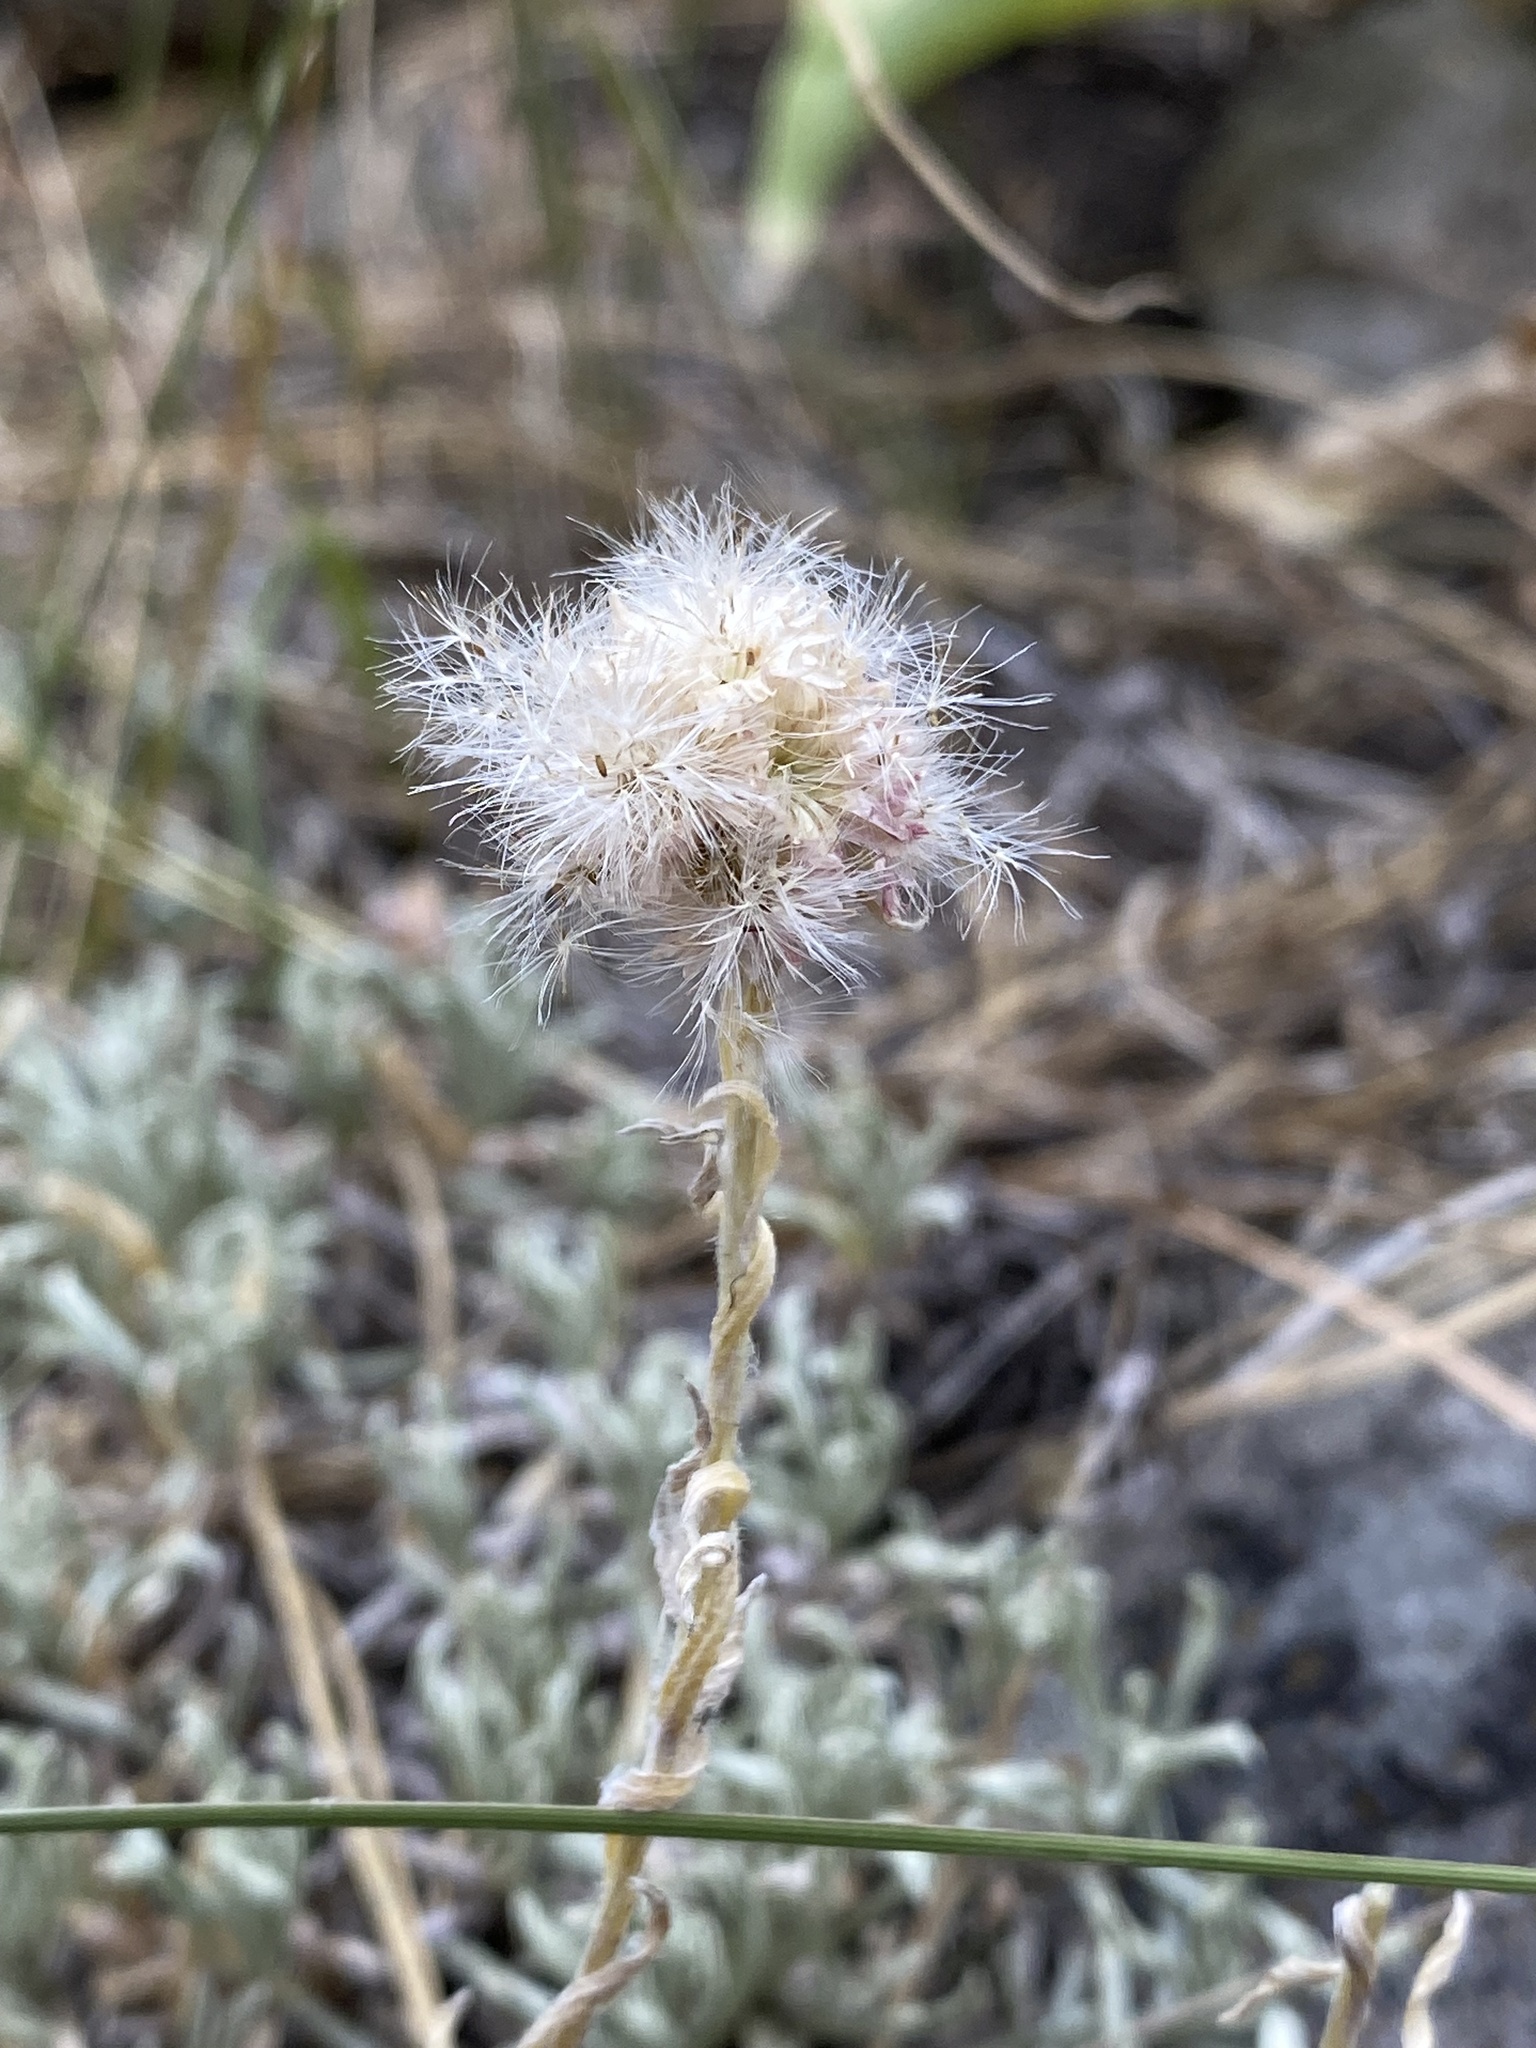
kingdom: Plantae
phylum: Tracheophyta
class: Magnoliopsida
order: Asterales
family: Asteraceae
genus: Antennaria
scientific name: Antennaria stenophylla
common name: Narrow-leaved pussytoes
